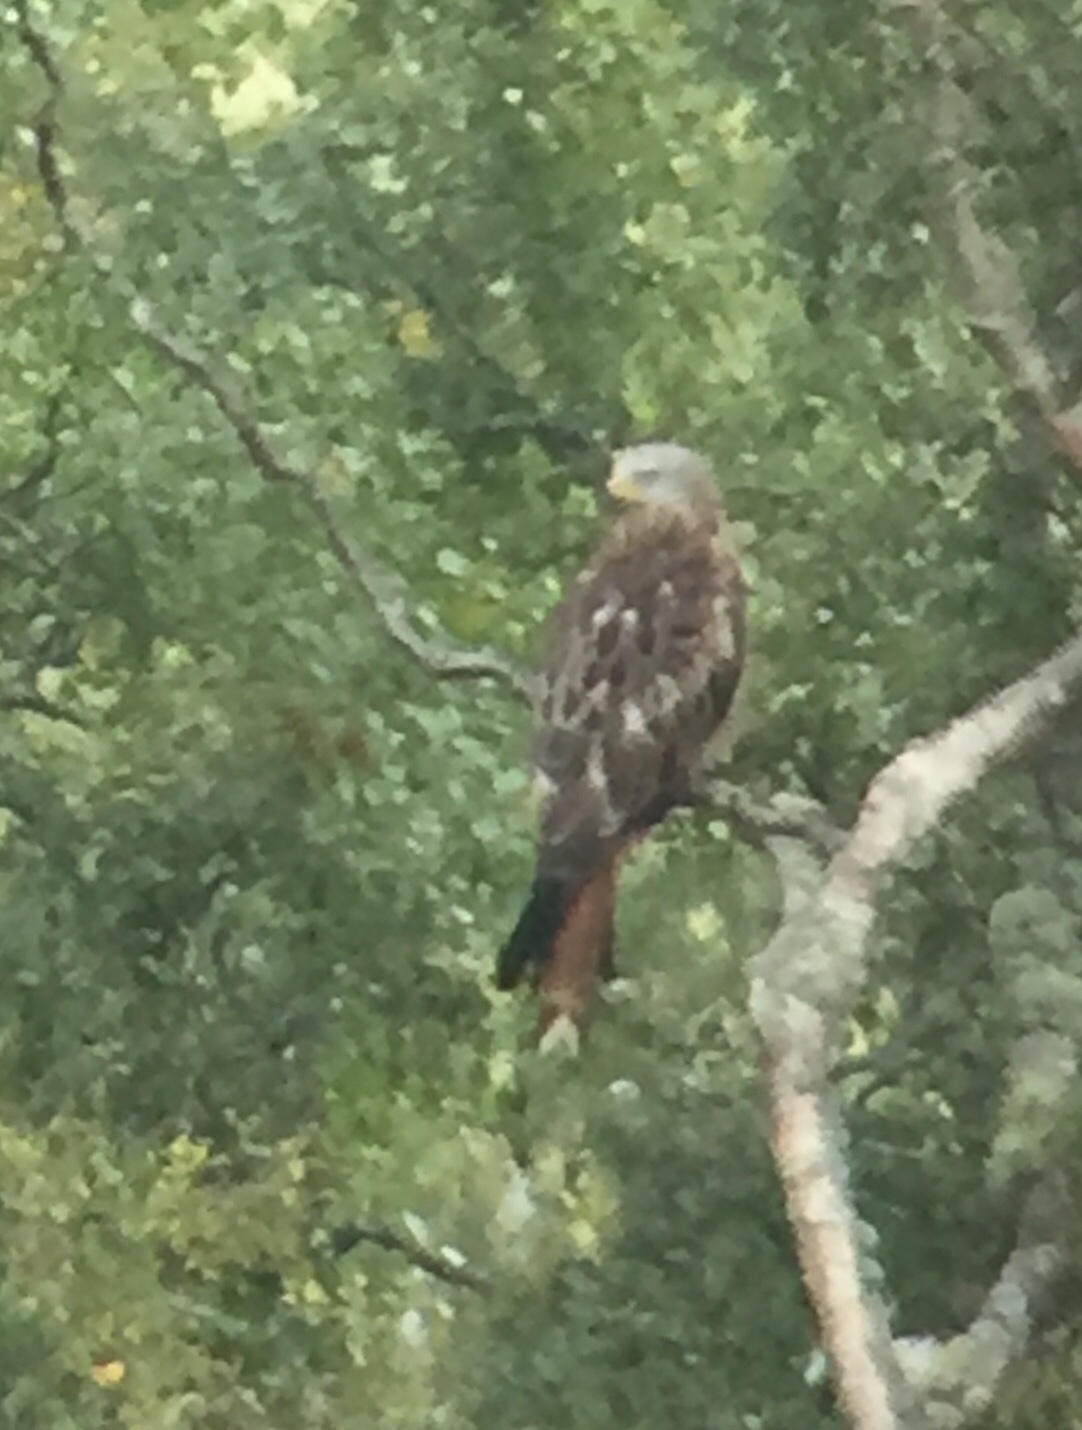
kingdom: Animalia
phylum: Chordata
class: Aves
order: Accipitriformes
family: Accipitridae
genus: Milvus
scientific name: Milvus milvus
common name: Red kite
